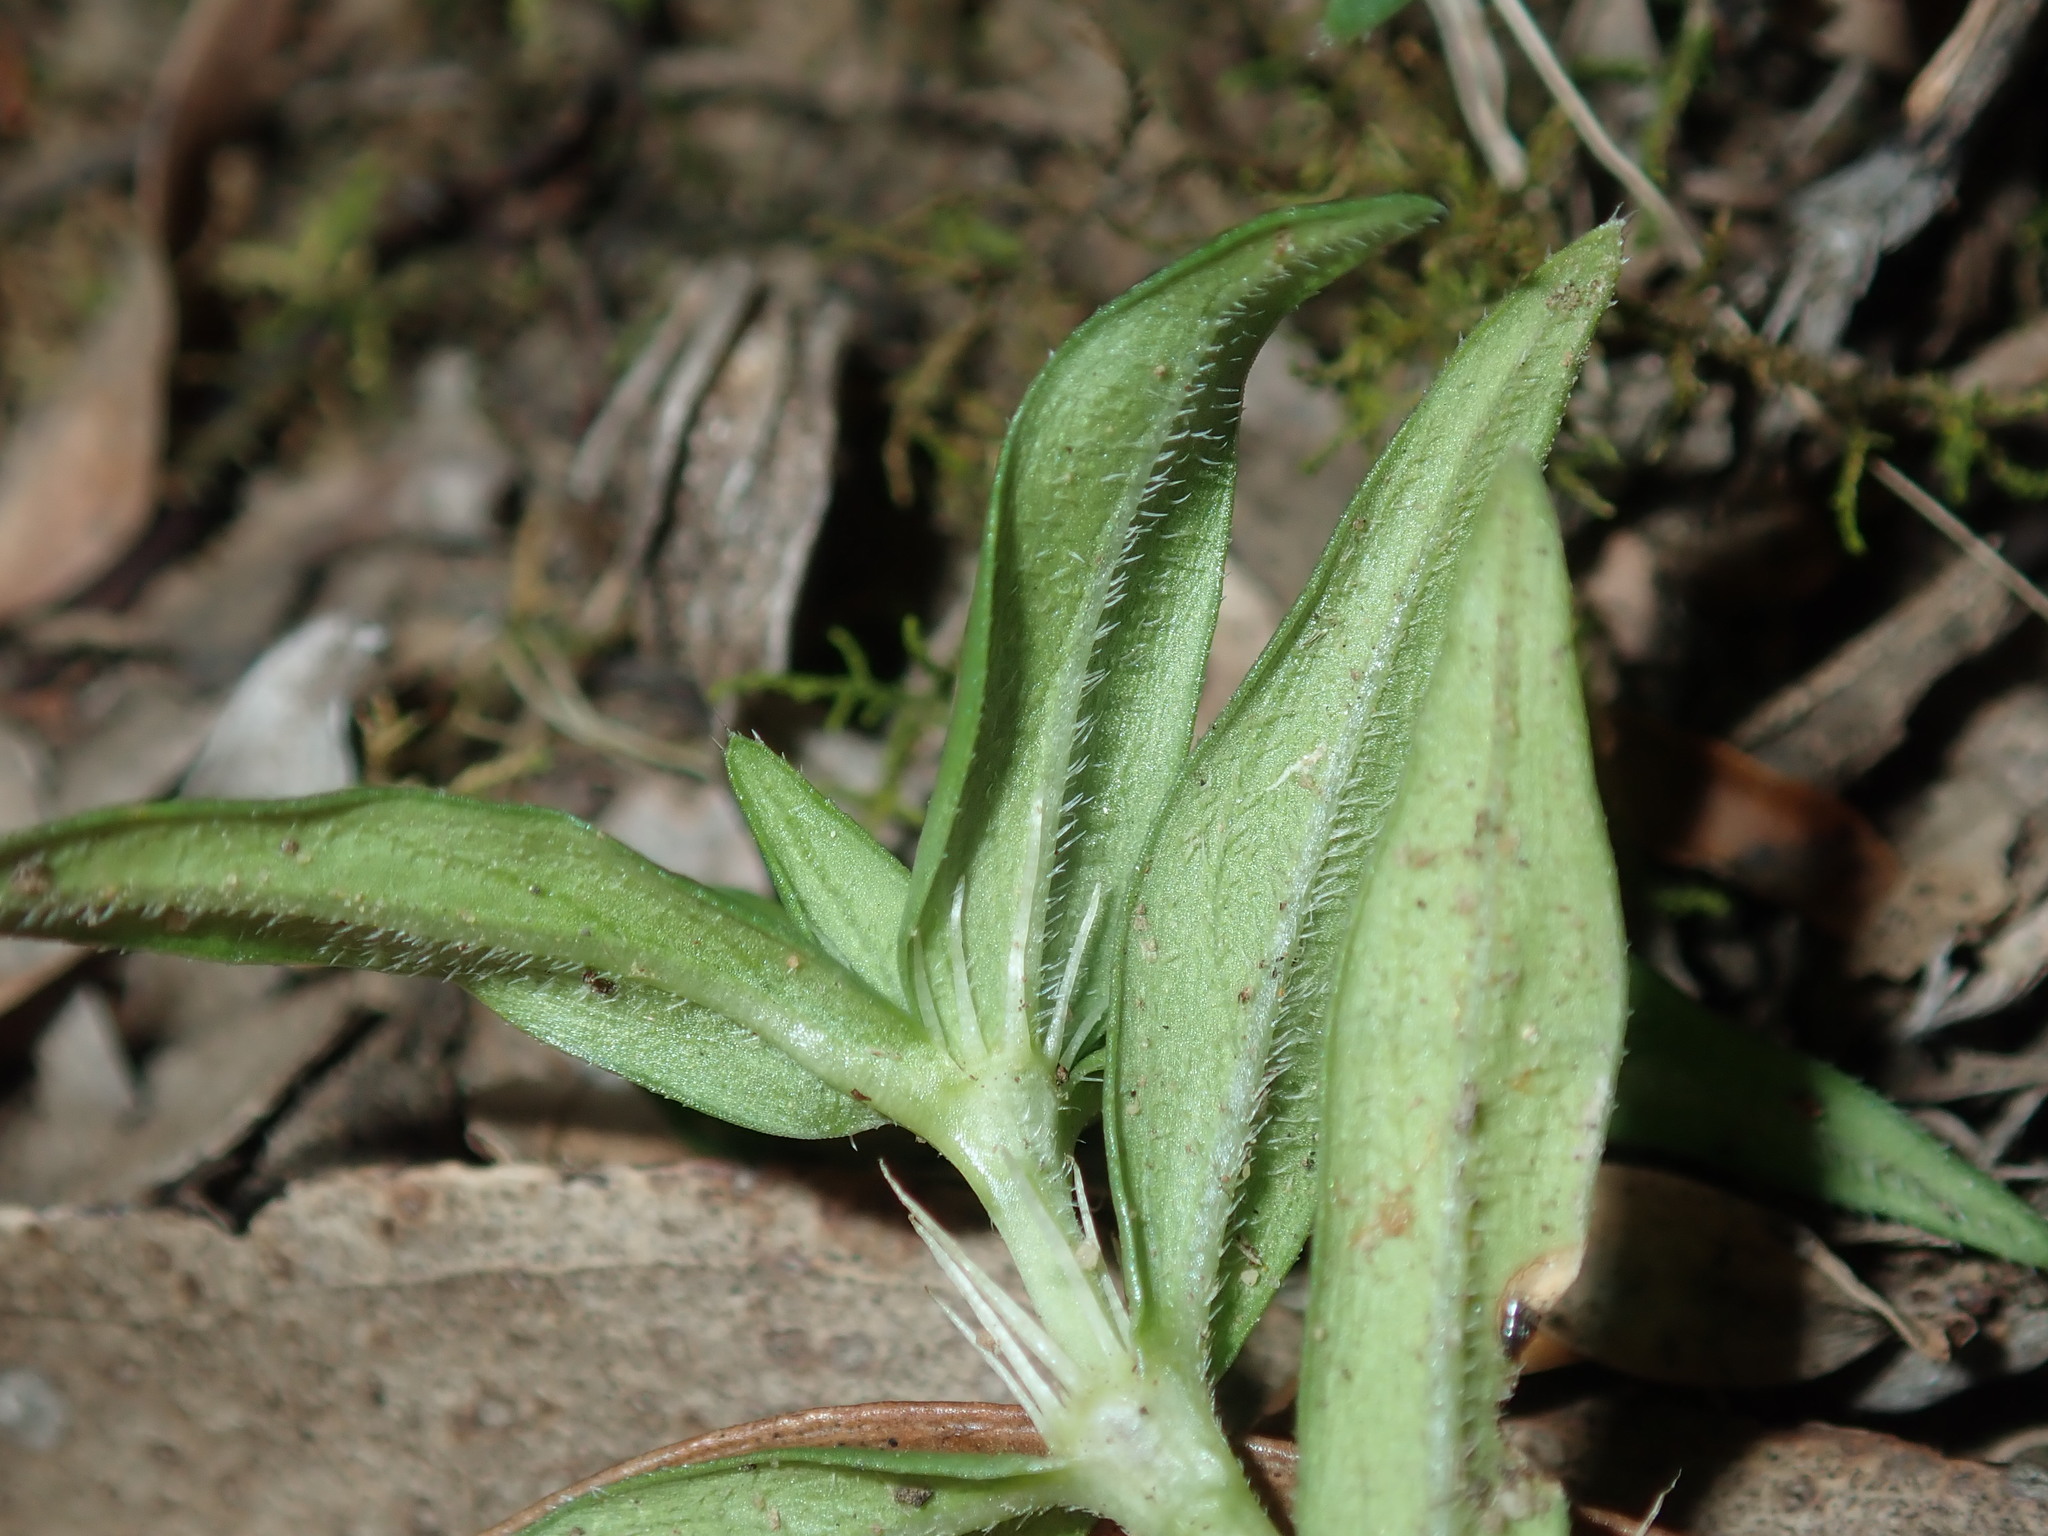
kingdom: Plantae
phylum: Tracheophyta
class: Magnoliopsida
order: Gentianales
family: Rubiaceae
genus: Richardia
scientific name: Richardia stellaris
